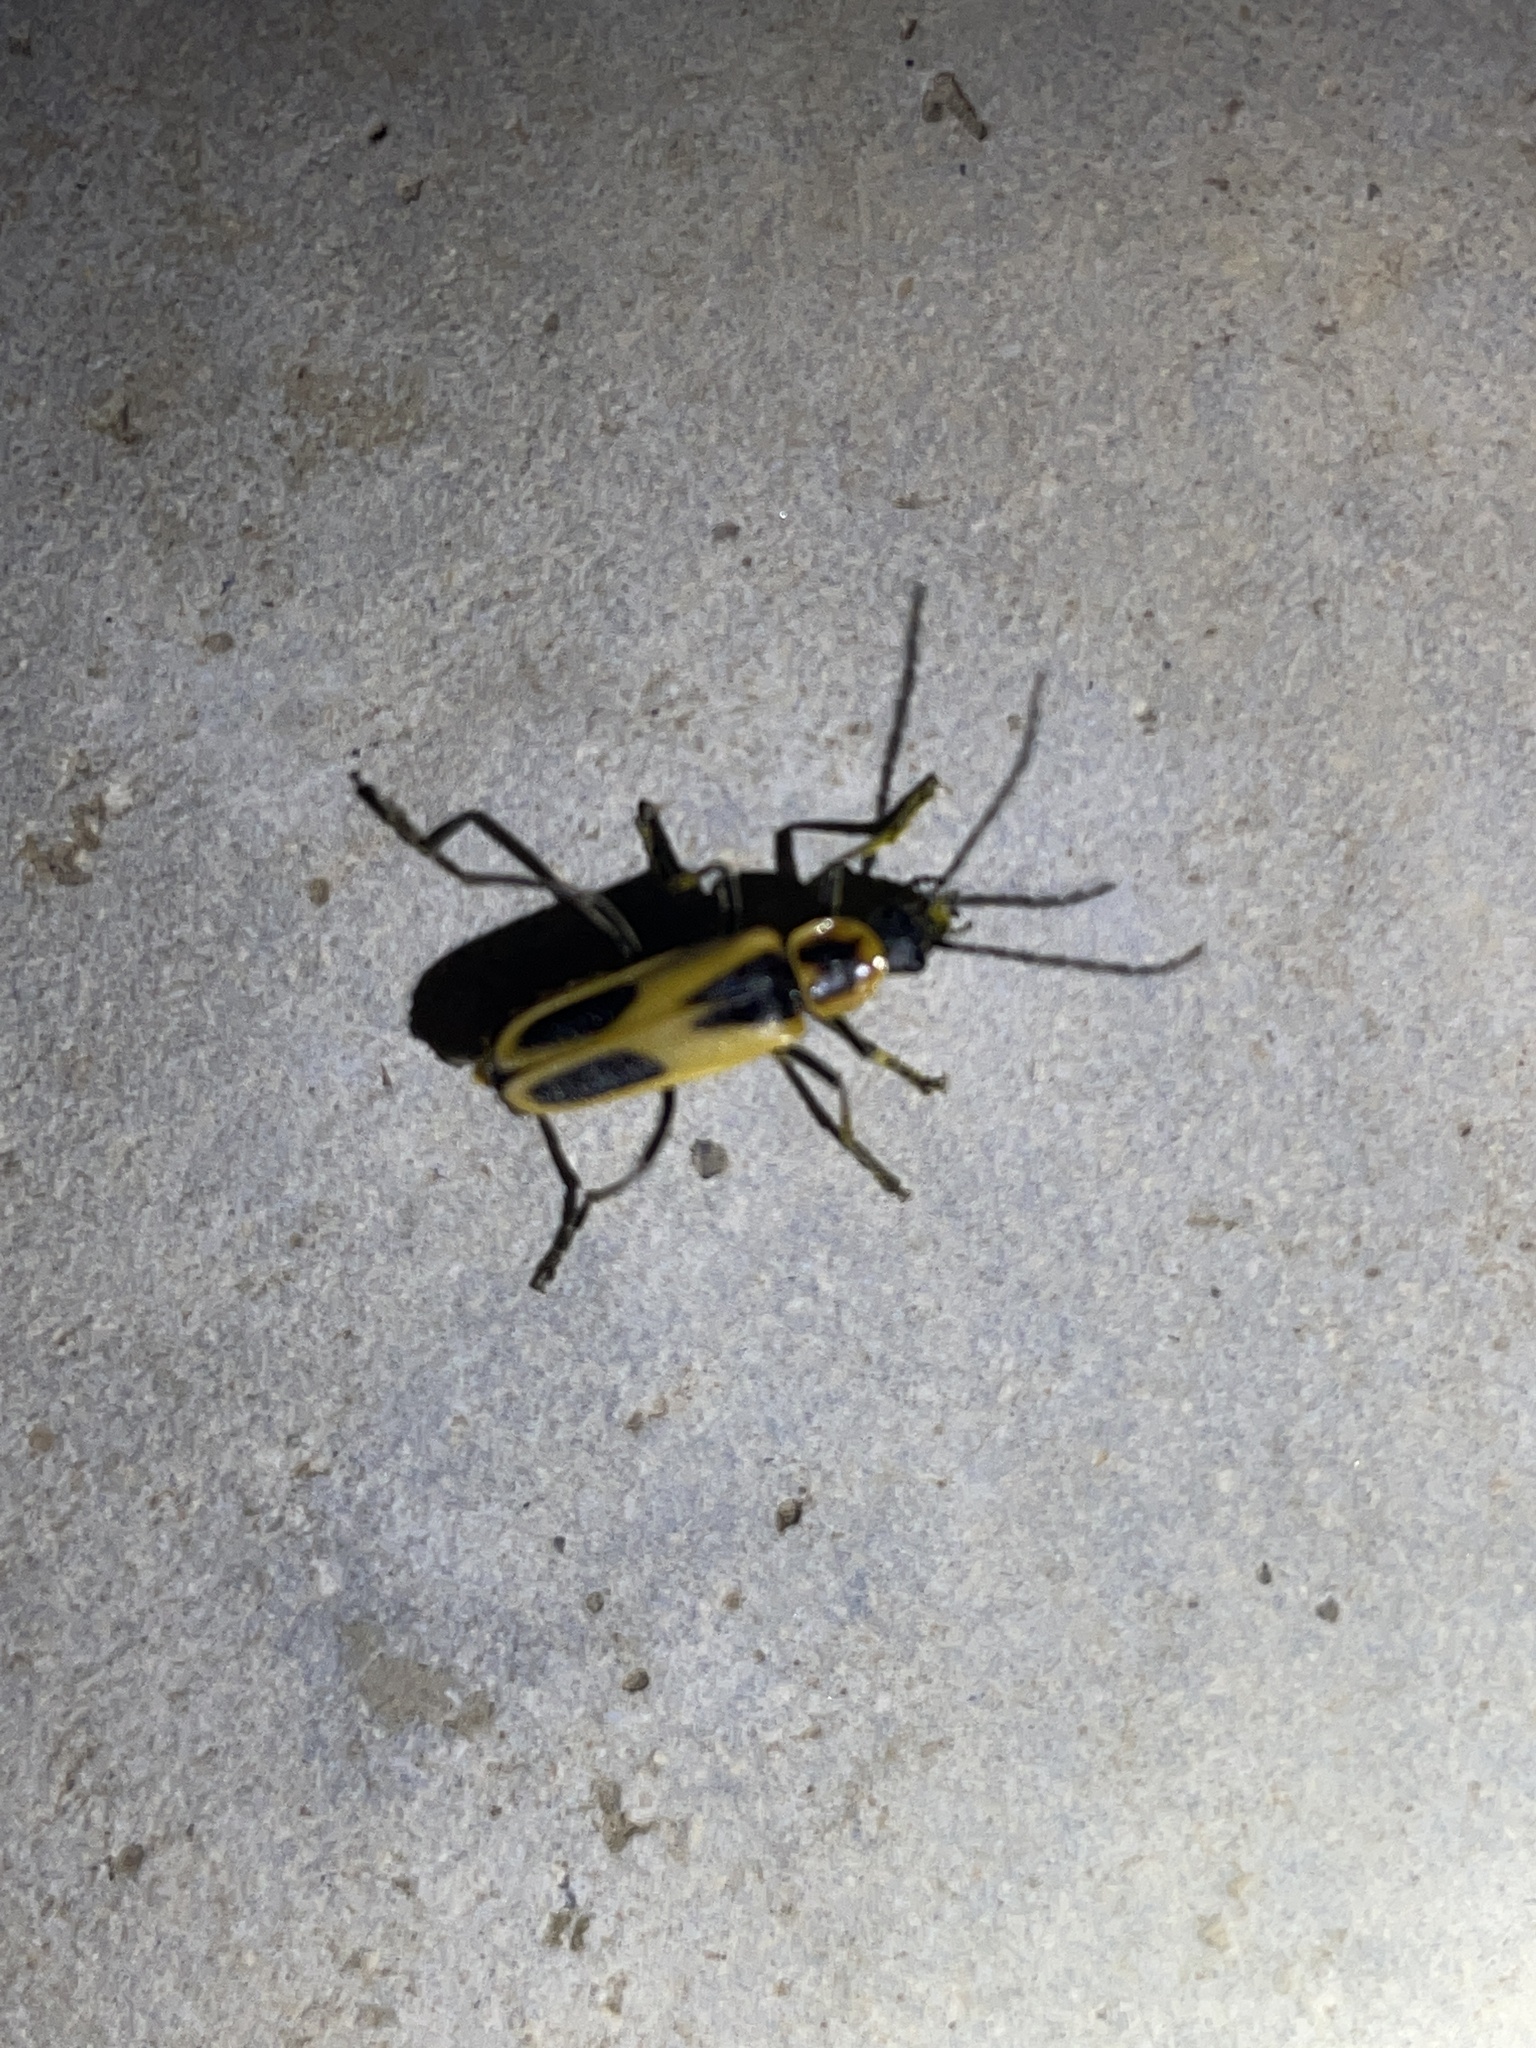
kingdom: Animalia
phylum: Arthropoda
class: Insecta
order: Coleoptera
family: Cantharidae
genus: Chauliognathus
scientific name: Chauliognathus scutellaris
